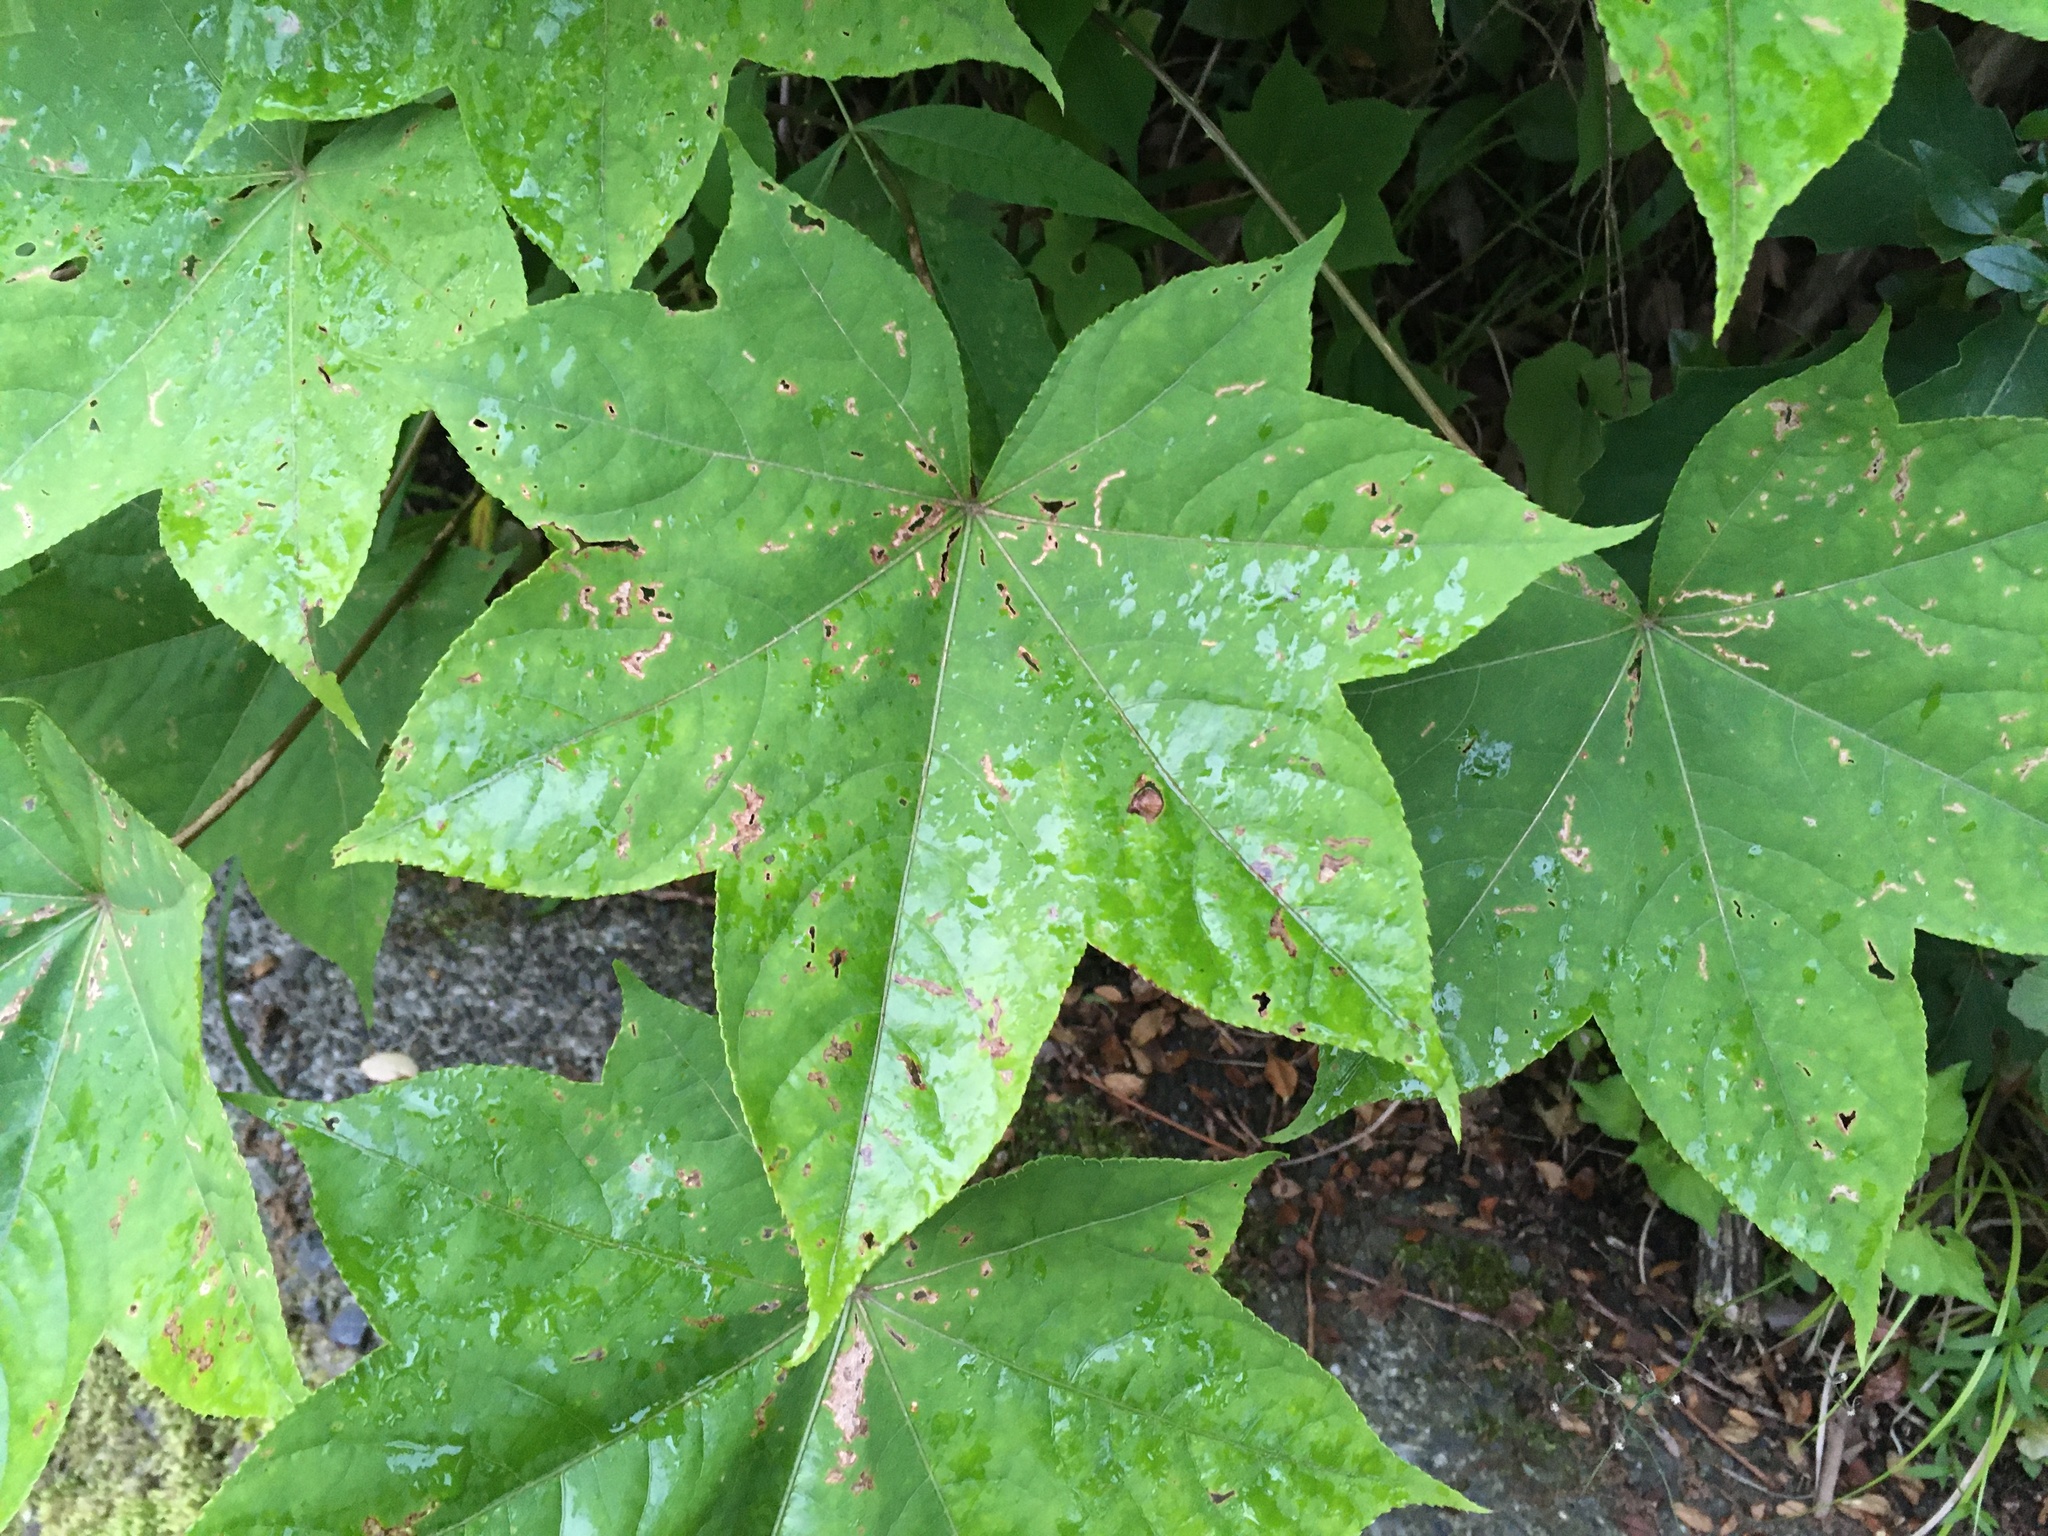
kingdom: Plantae
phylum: Tracheophyta
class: Magnoliopsida
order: Apiales
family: Araliaceae
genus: Kalopanax
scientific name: Kalopanax septemlobus
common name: Castor aralia
